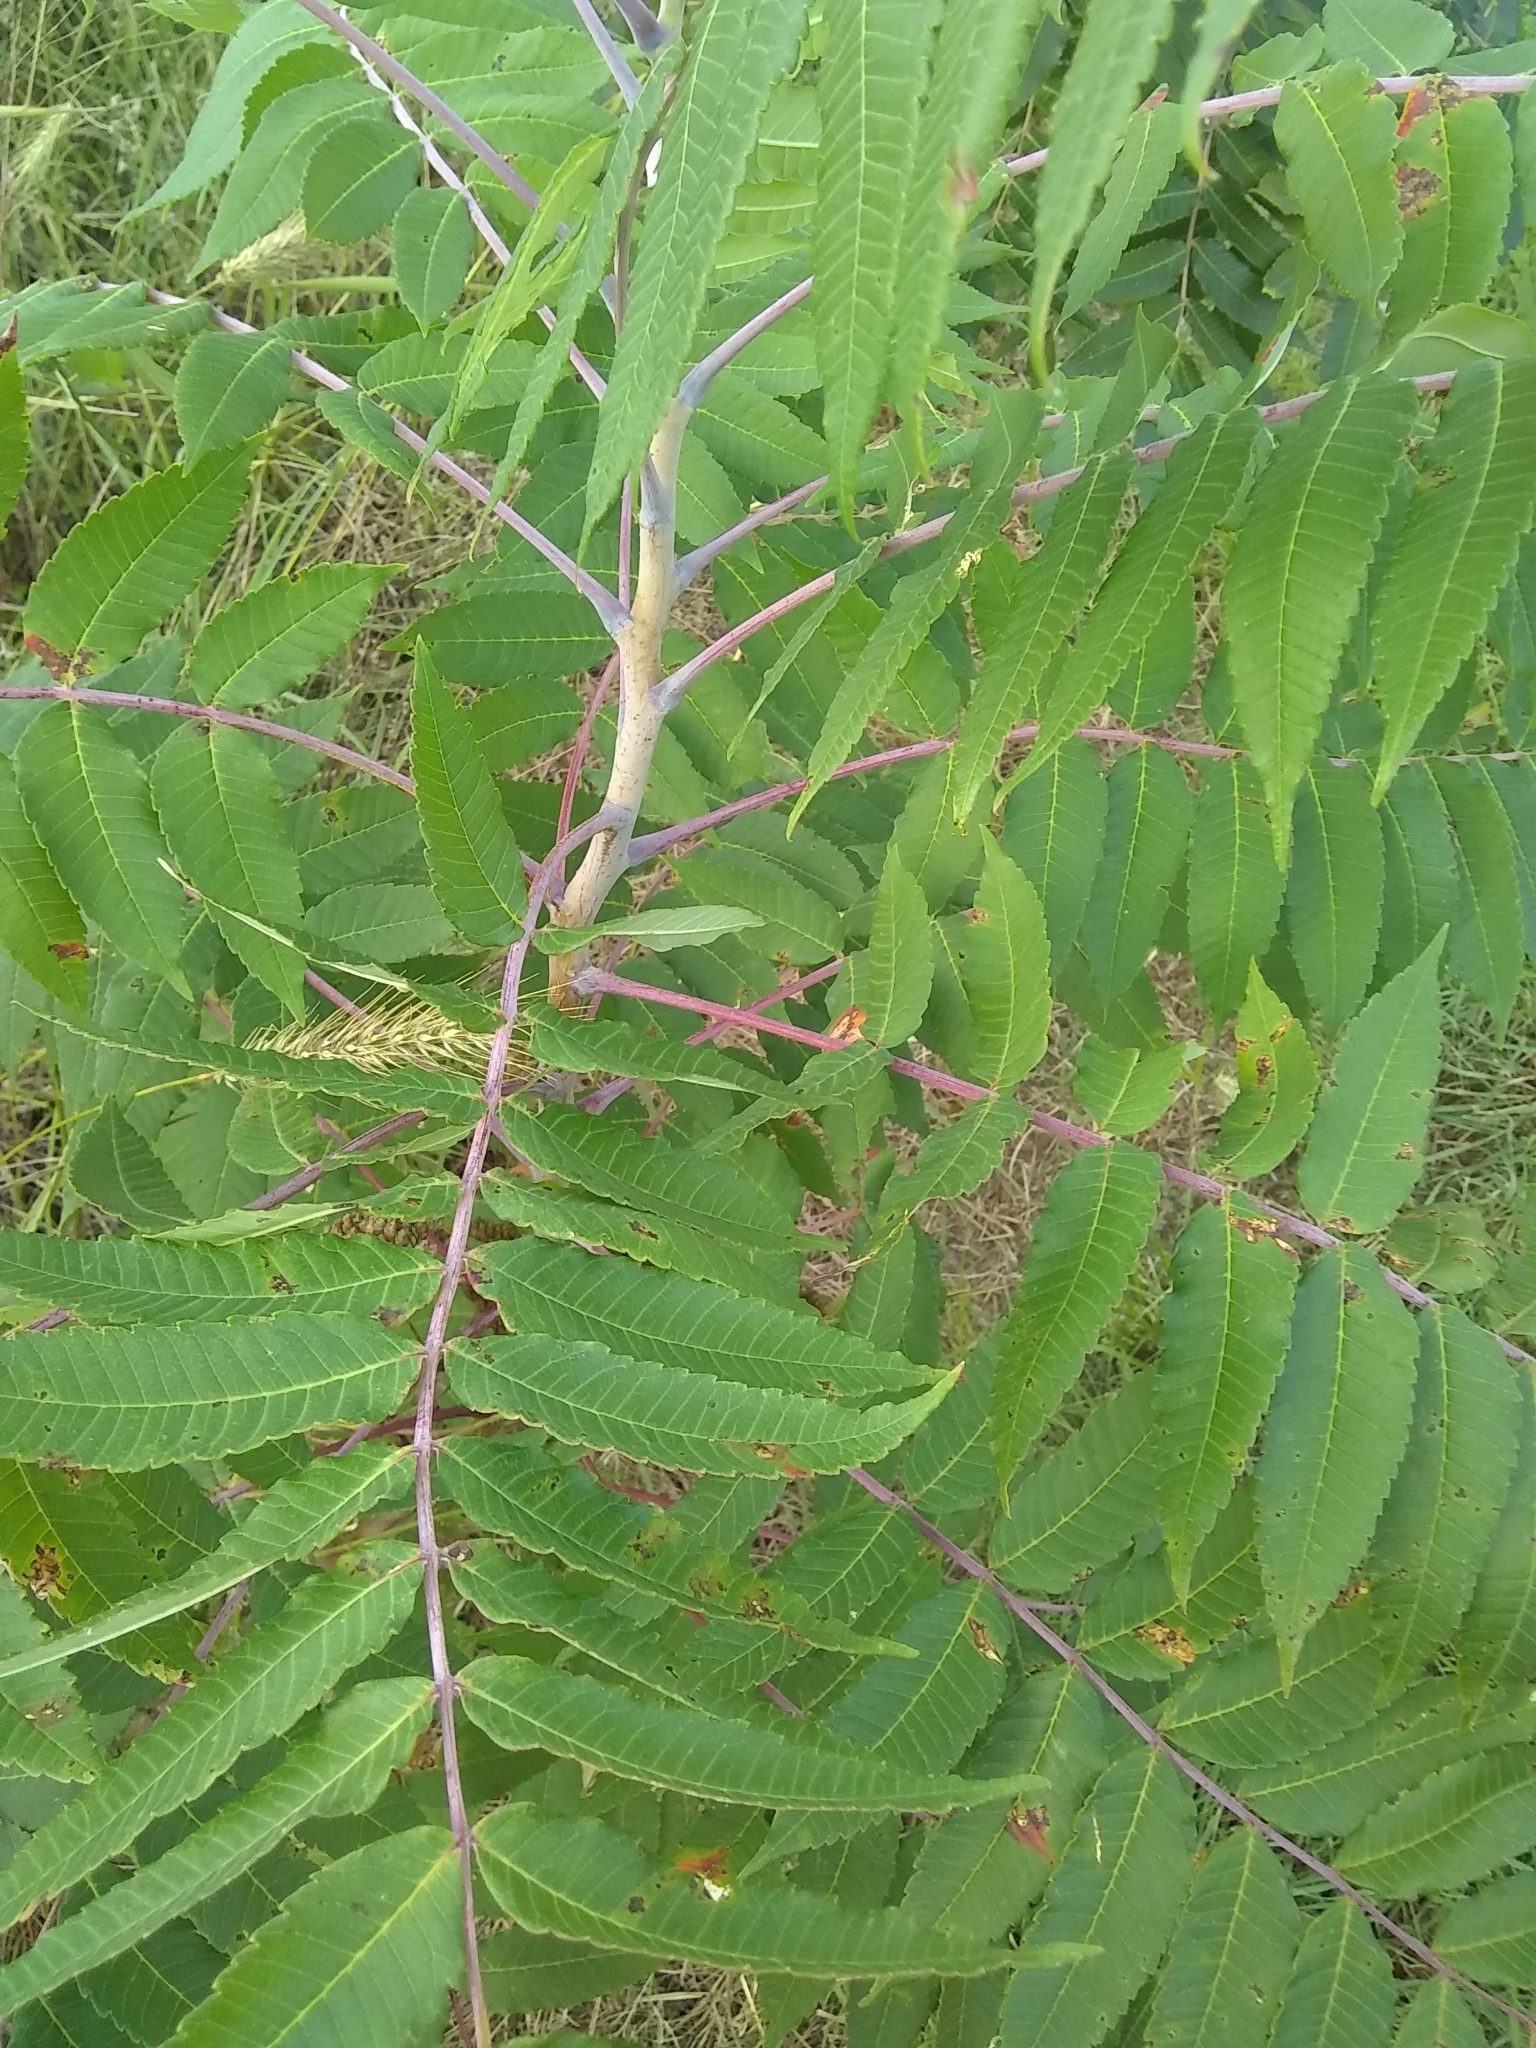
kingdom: Plantae
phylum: Tracheophyta
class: Magnoliopsida
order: Sapindales
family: Anacardiaceae
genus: Rhus
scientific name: Rhus glabra
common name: Scarlet sumac
